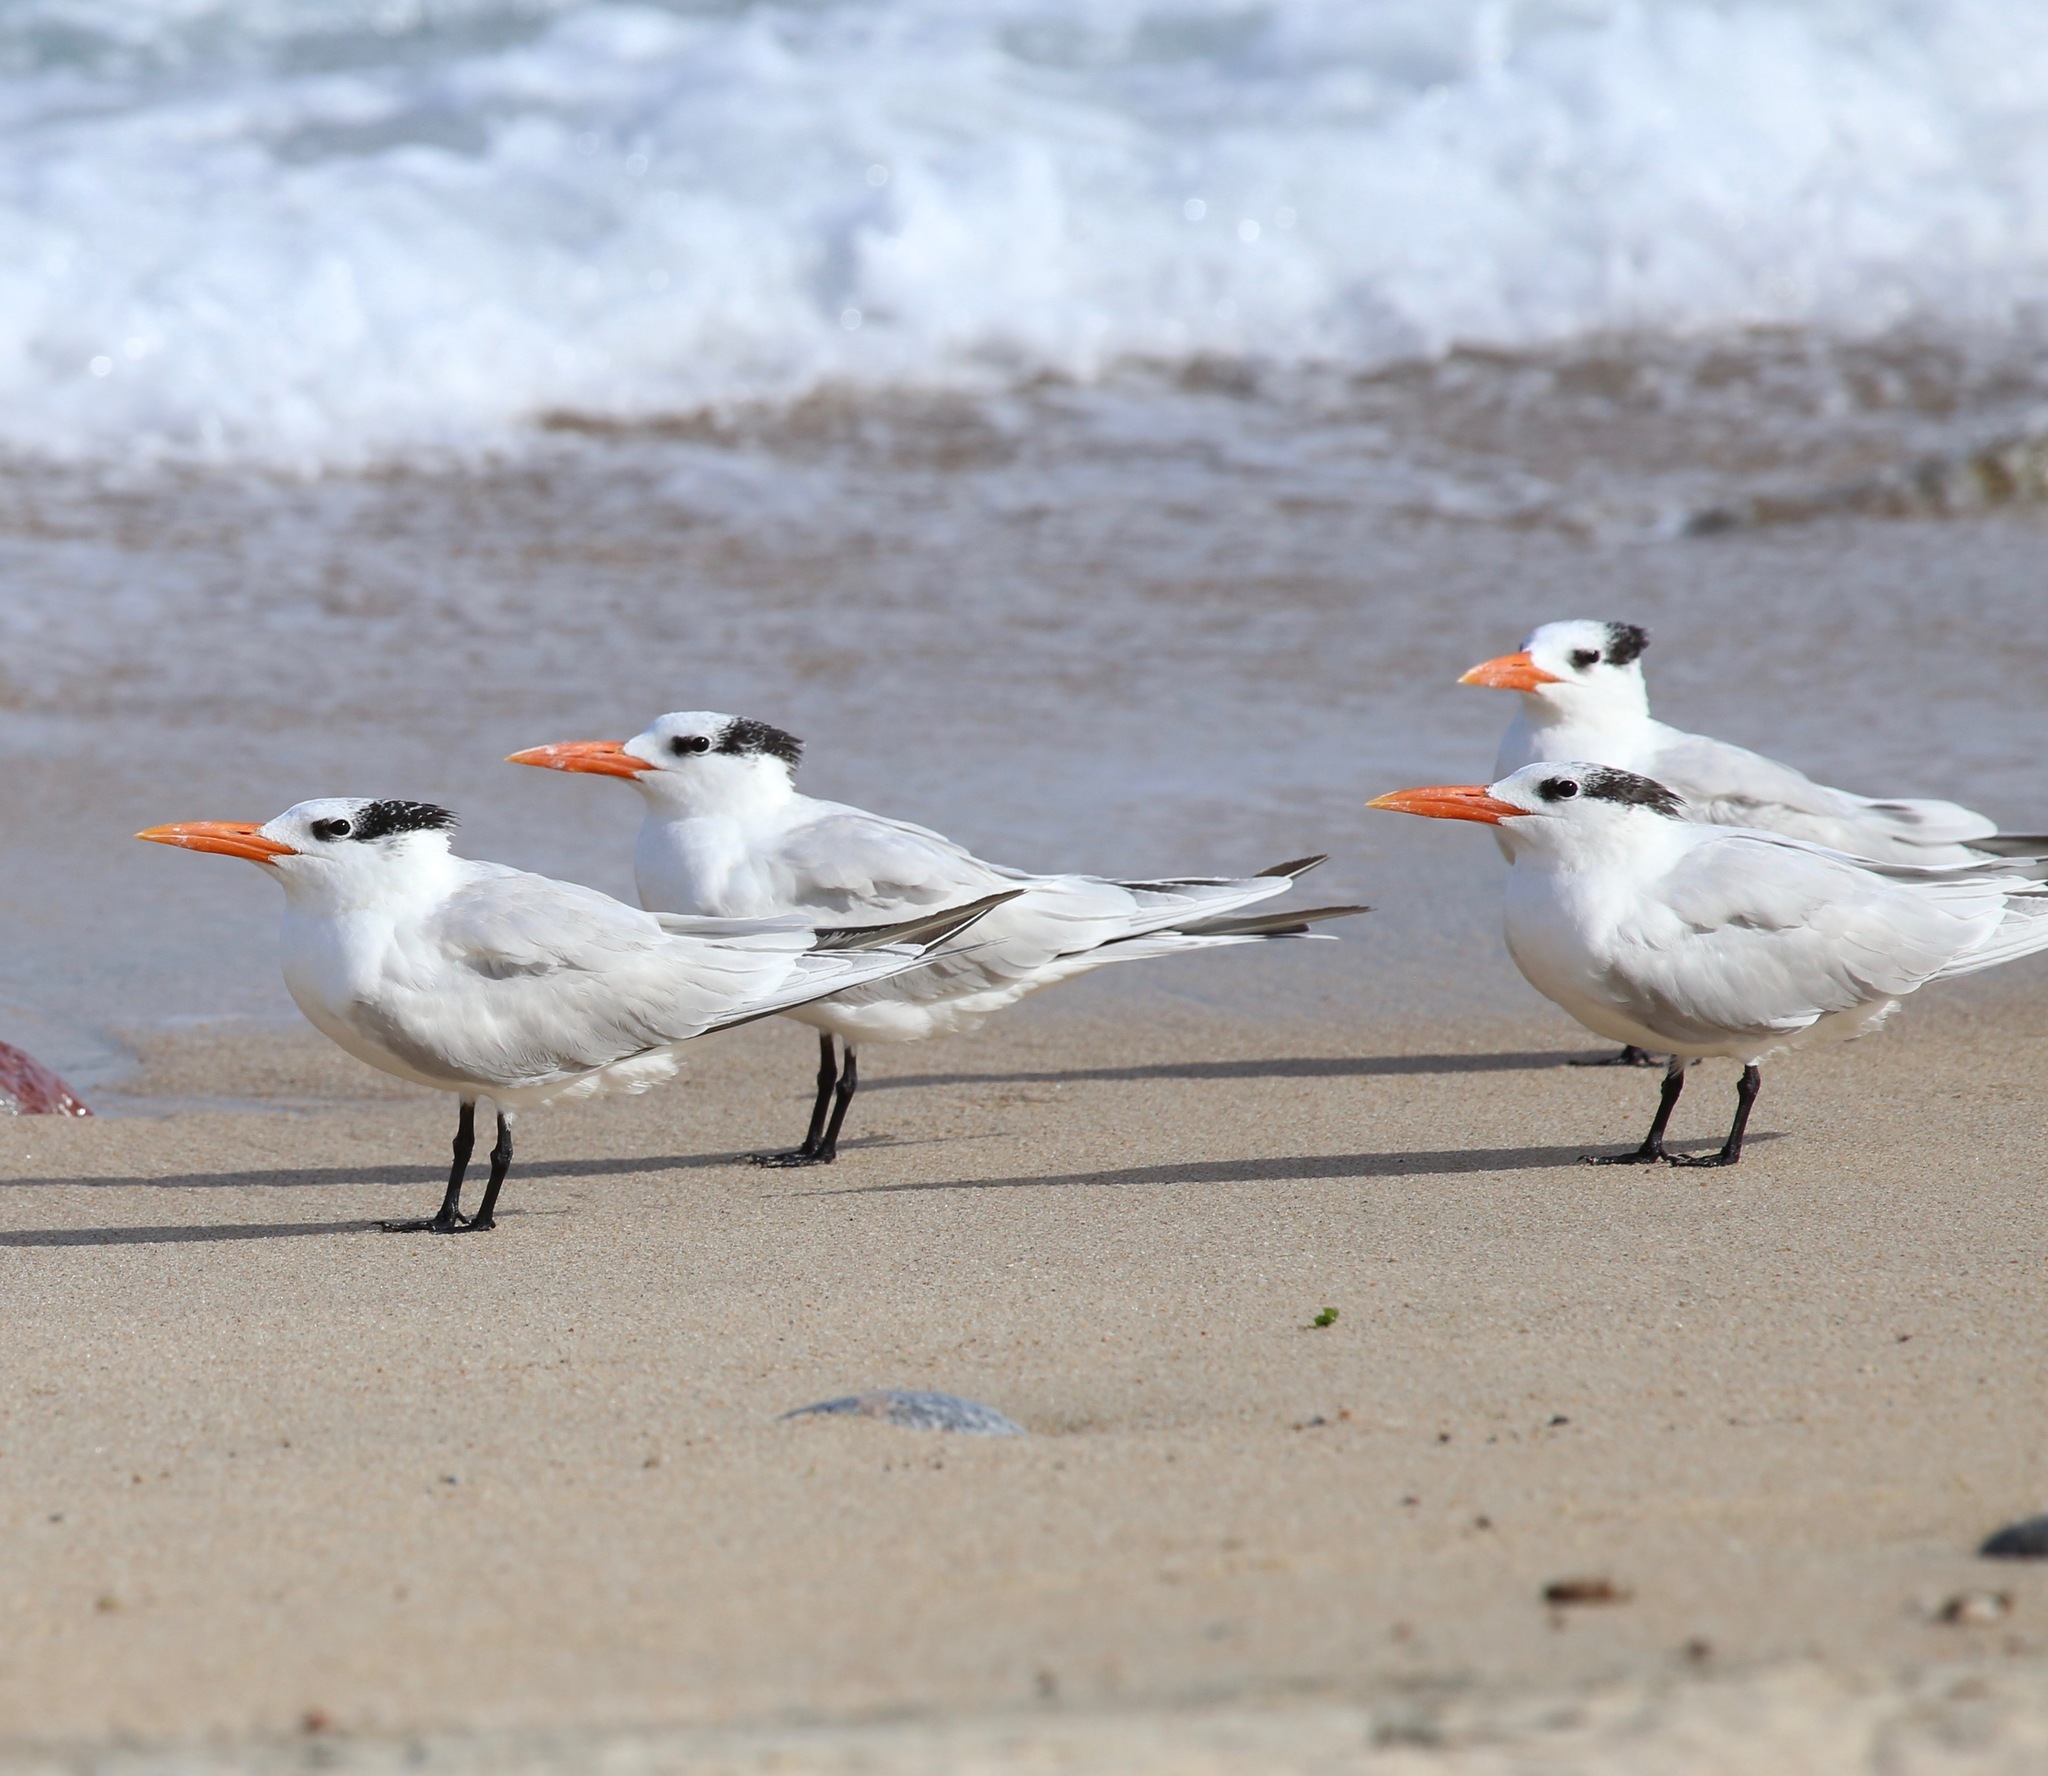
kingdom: Animalia
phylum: Chordata
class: Aves
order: Charadriiformes
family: Laridae
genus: Thalasseus
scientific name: Thalasseus maximus
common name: Royal tern
